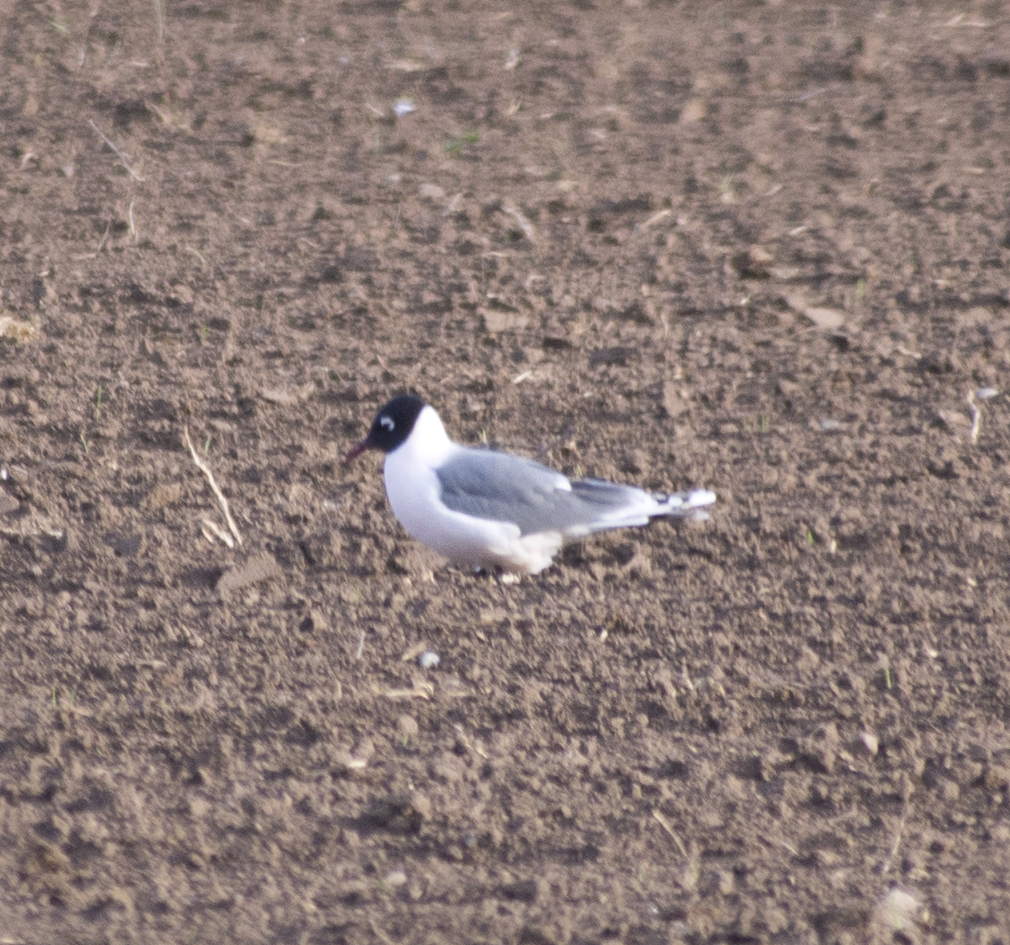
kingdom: Animalia
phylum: Chordata
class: Aves
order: Charadriiformes
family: Laridae
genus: Leucophaeus
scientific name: Leucophaeus pipixcan
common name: Franklin's gull
